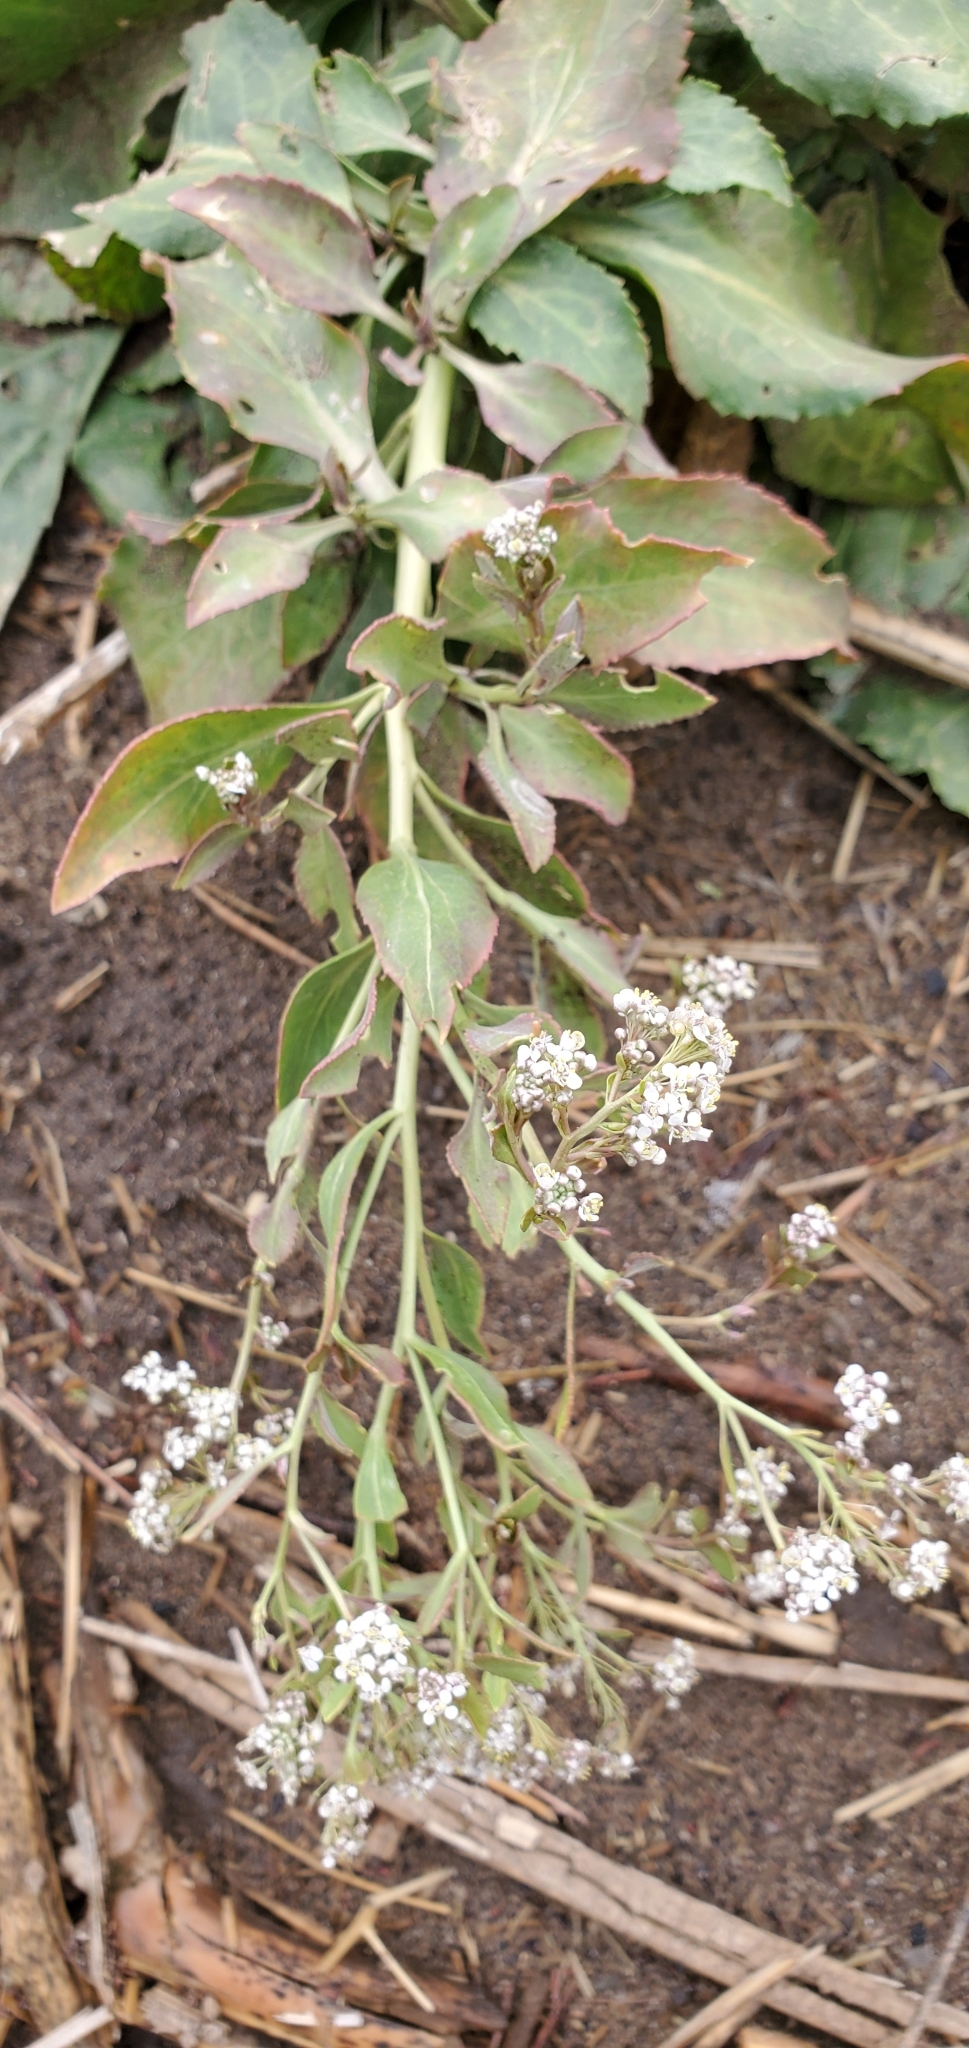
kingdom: Plantae
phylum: Tracheophyta
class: Magnoliopsida
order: Brassicales
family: Brassicaceae
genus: Lepidium
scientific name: Lepidium latifolium
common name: Dittander
